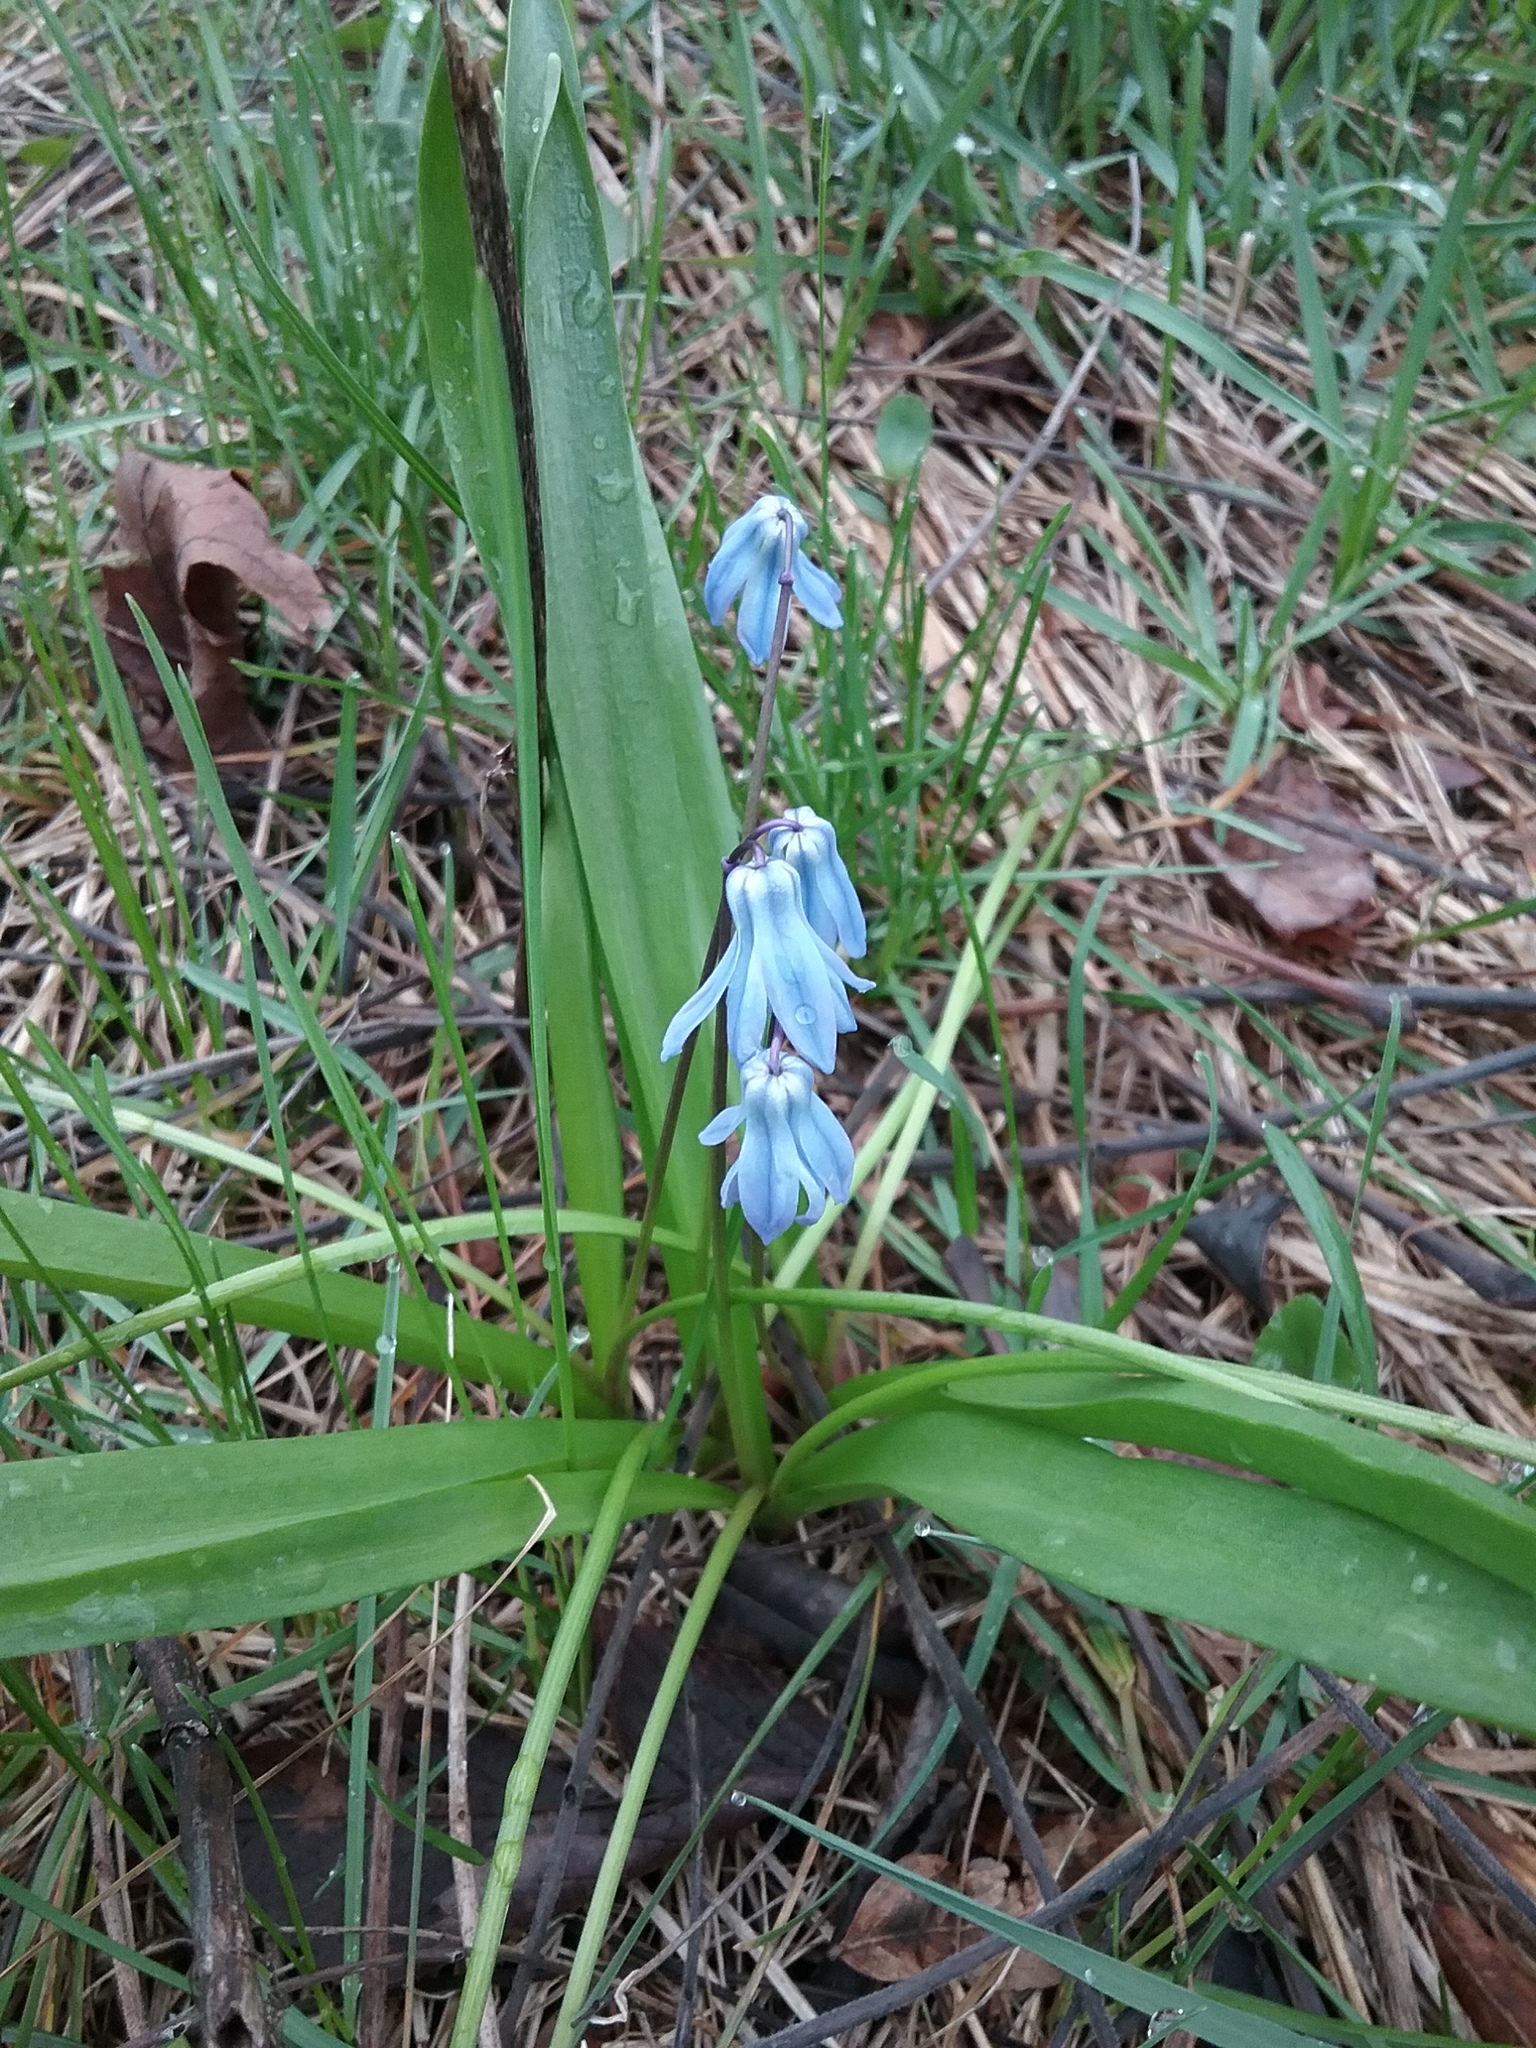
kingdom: Plantae
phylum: Tracheophyta
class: Liliopsida
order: Asparagales
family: Asparagaceae
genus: Scilla
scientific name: Scilla siberica
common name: Siberian squill
